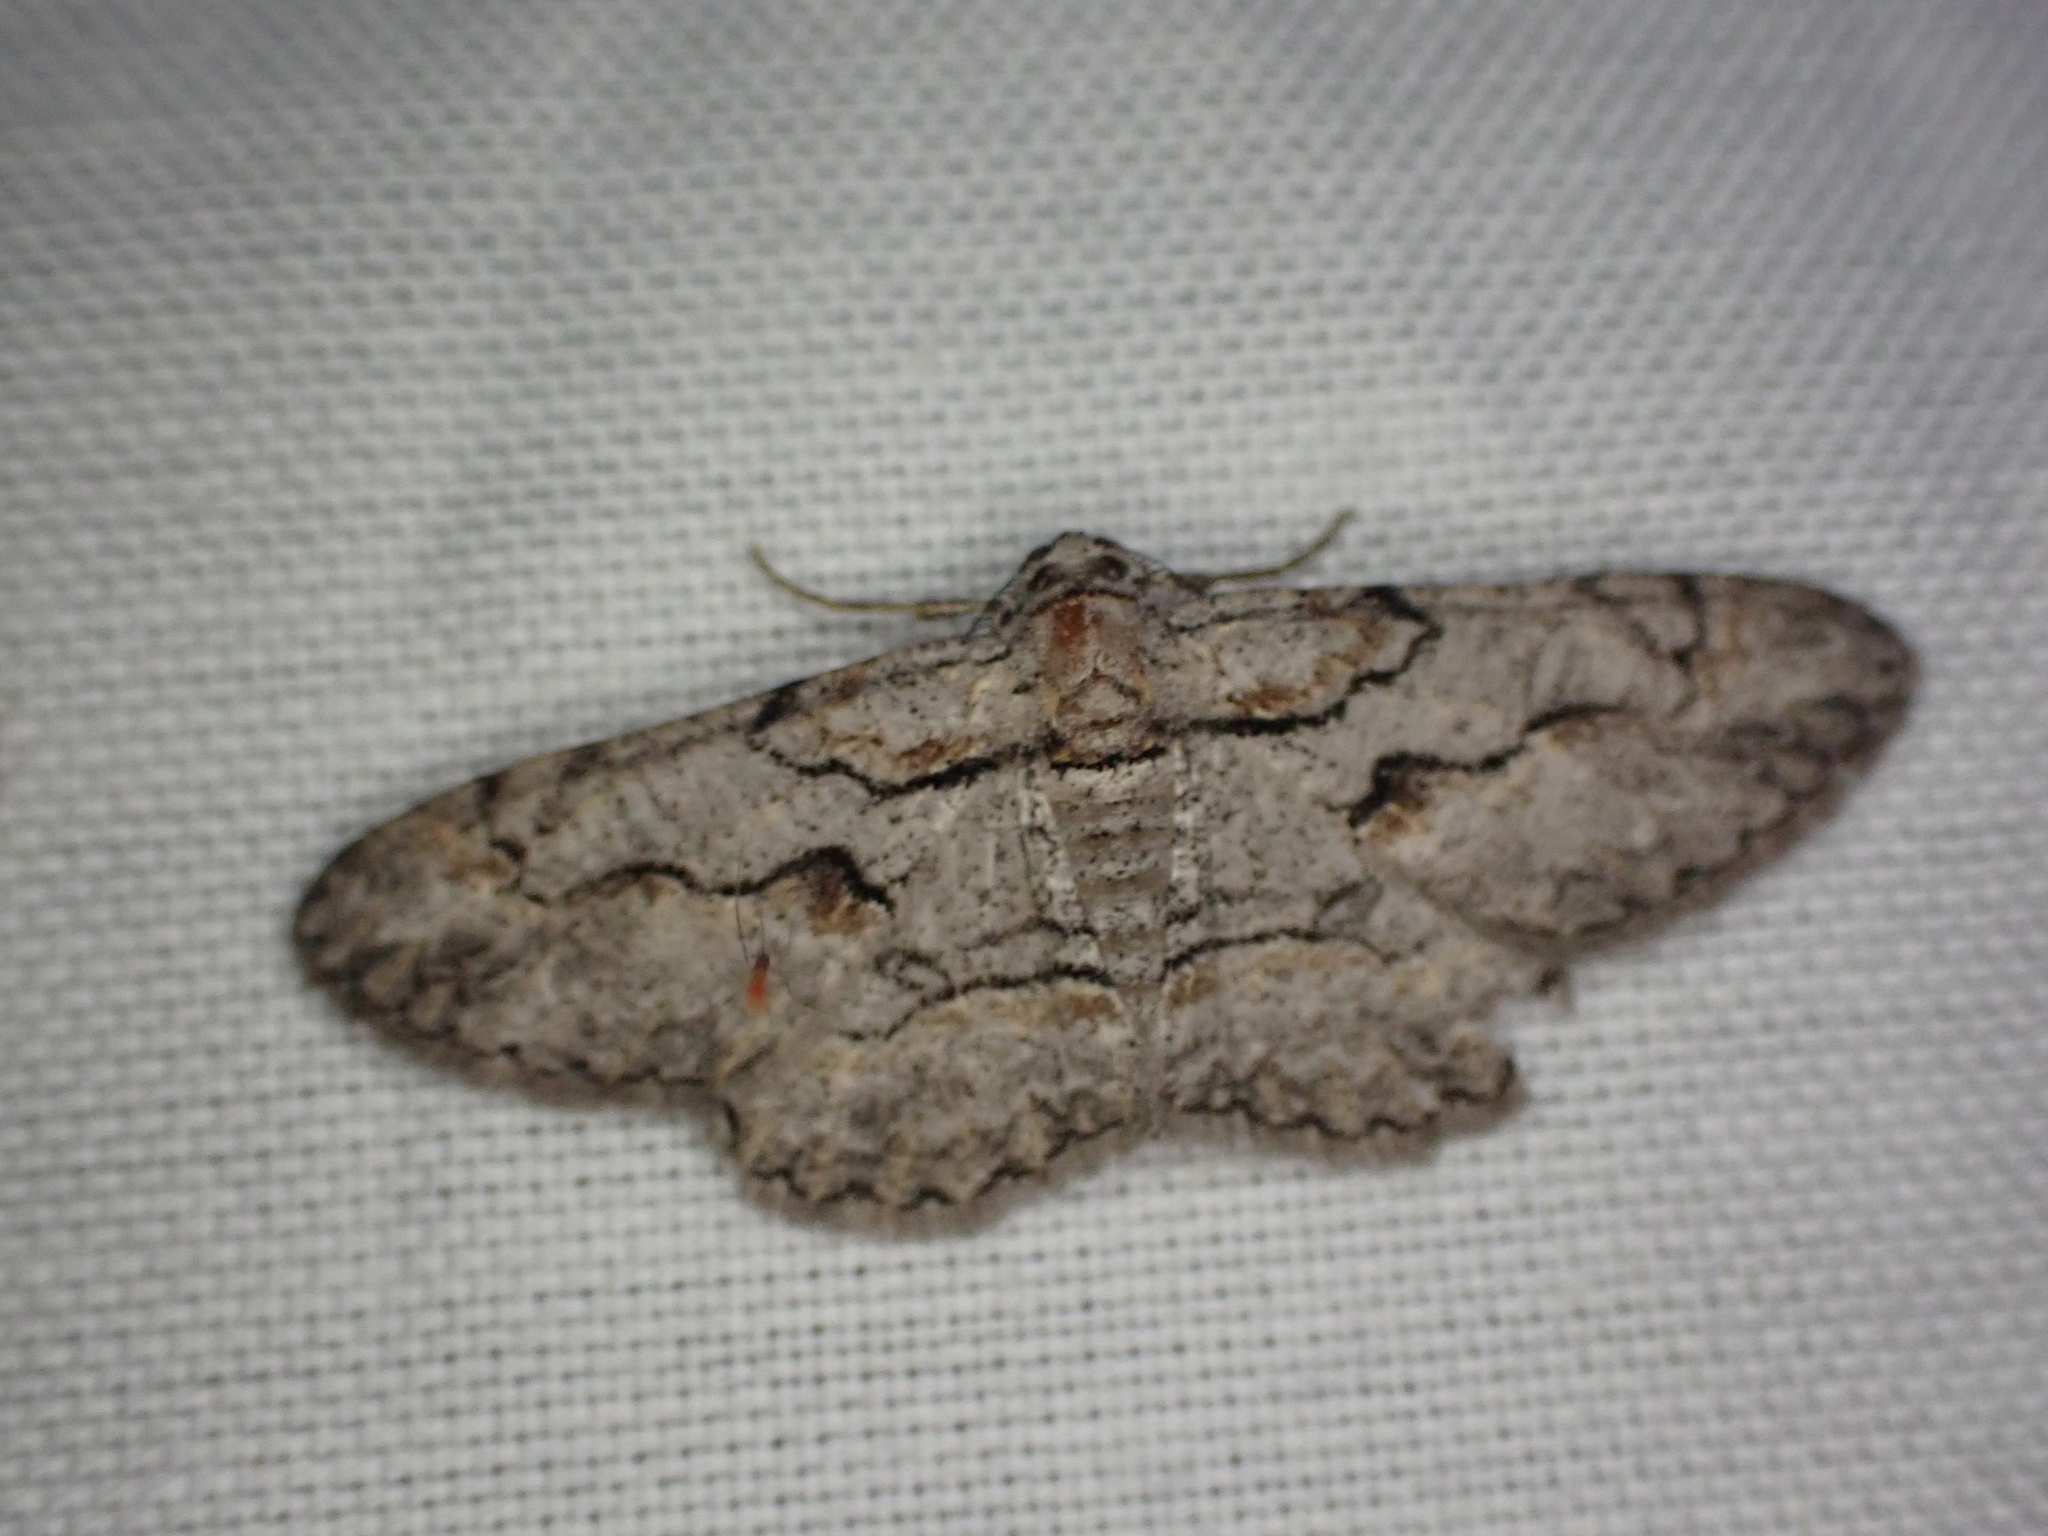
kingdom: Animalia
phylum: Arthropoda
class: Insecta
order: Lepidoptera
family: Geometridae
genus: Iridopsis
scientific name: Iridopsis defectaria
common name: Brown-shaded gray
